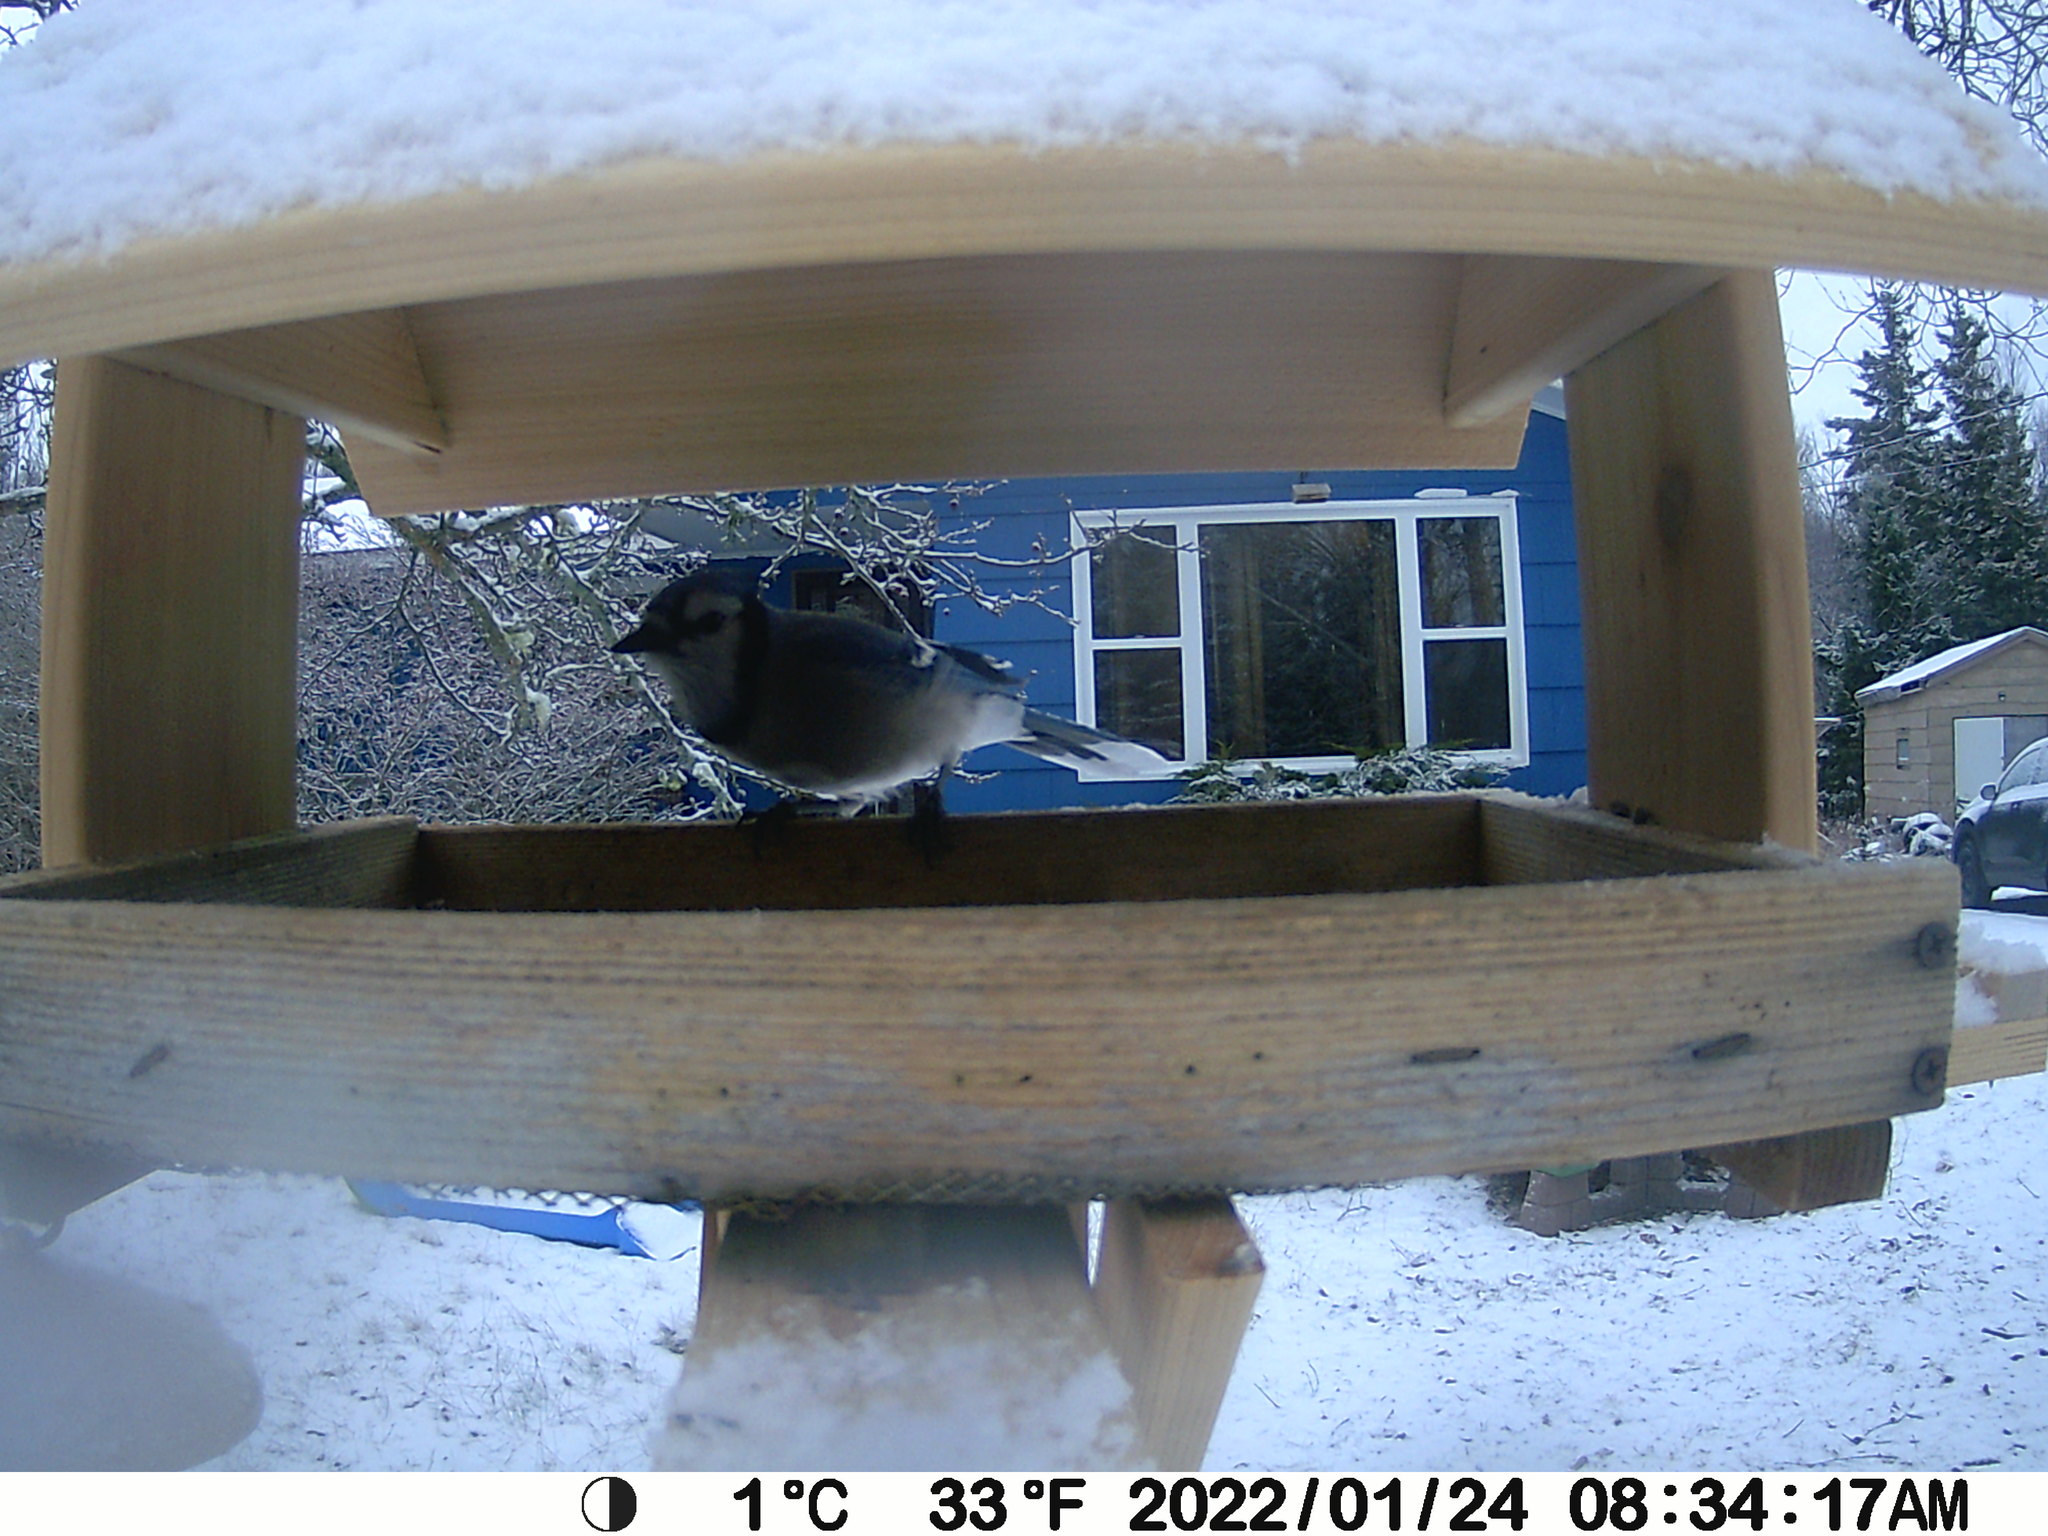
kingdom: Animalia
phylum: Chordata
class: Aves
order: Passeriformes
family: Corvidae
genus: Cyanocitta
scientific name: Cyanocitta cristata
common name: Blue jay
